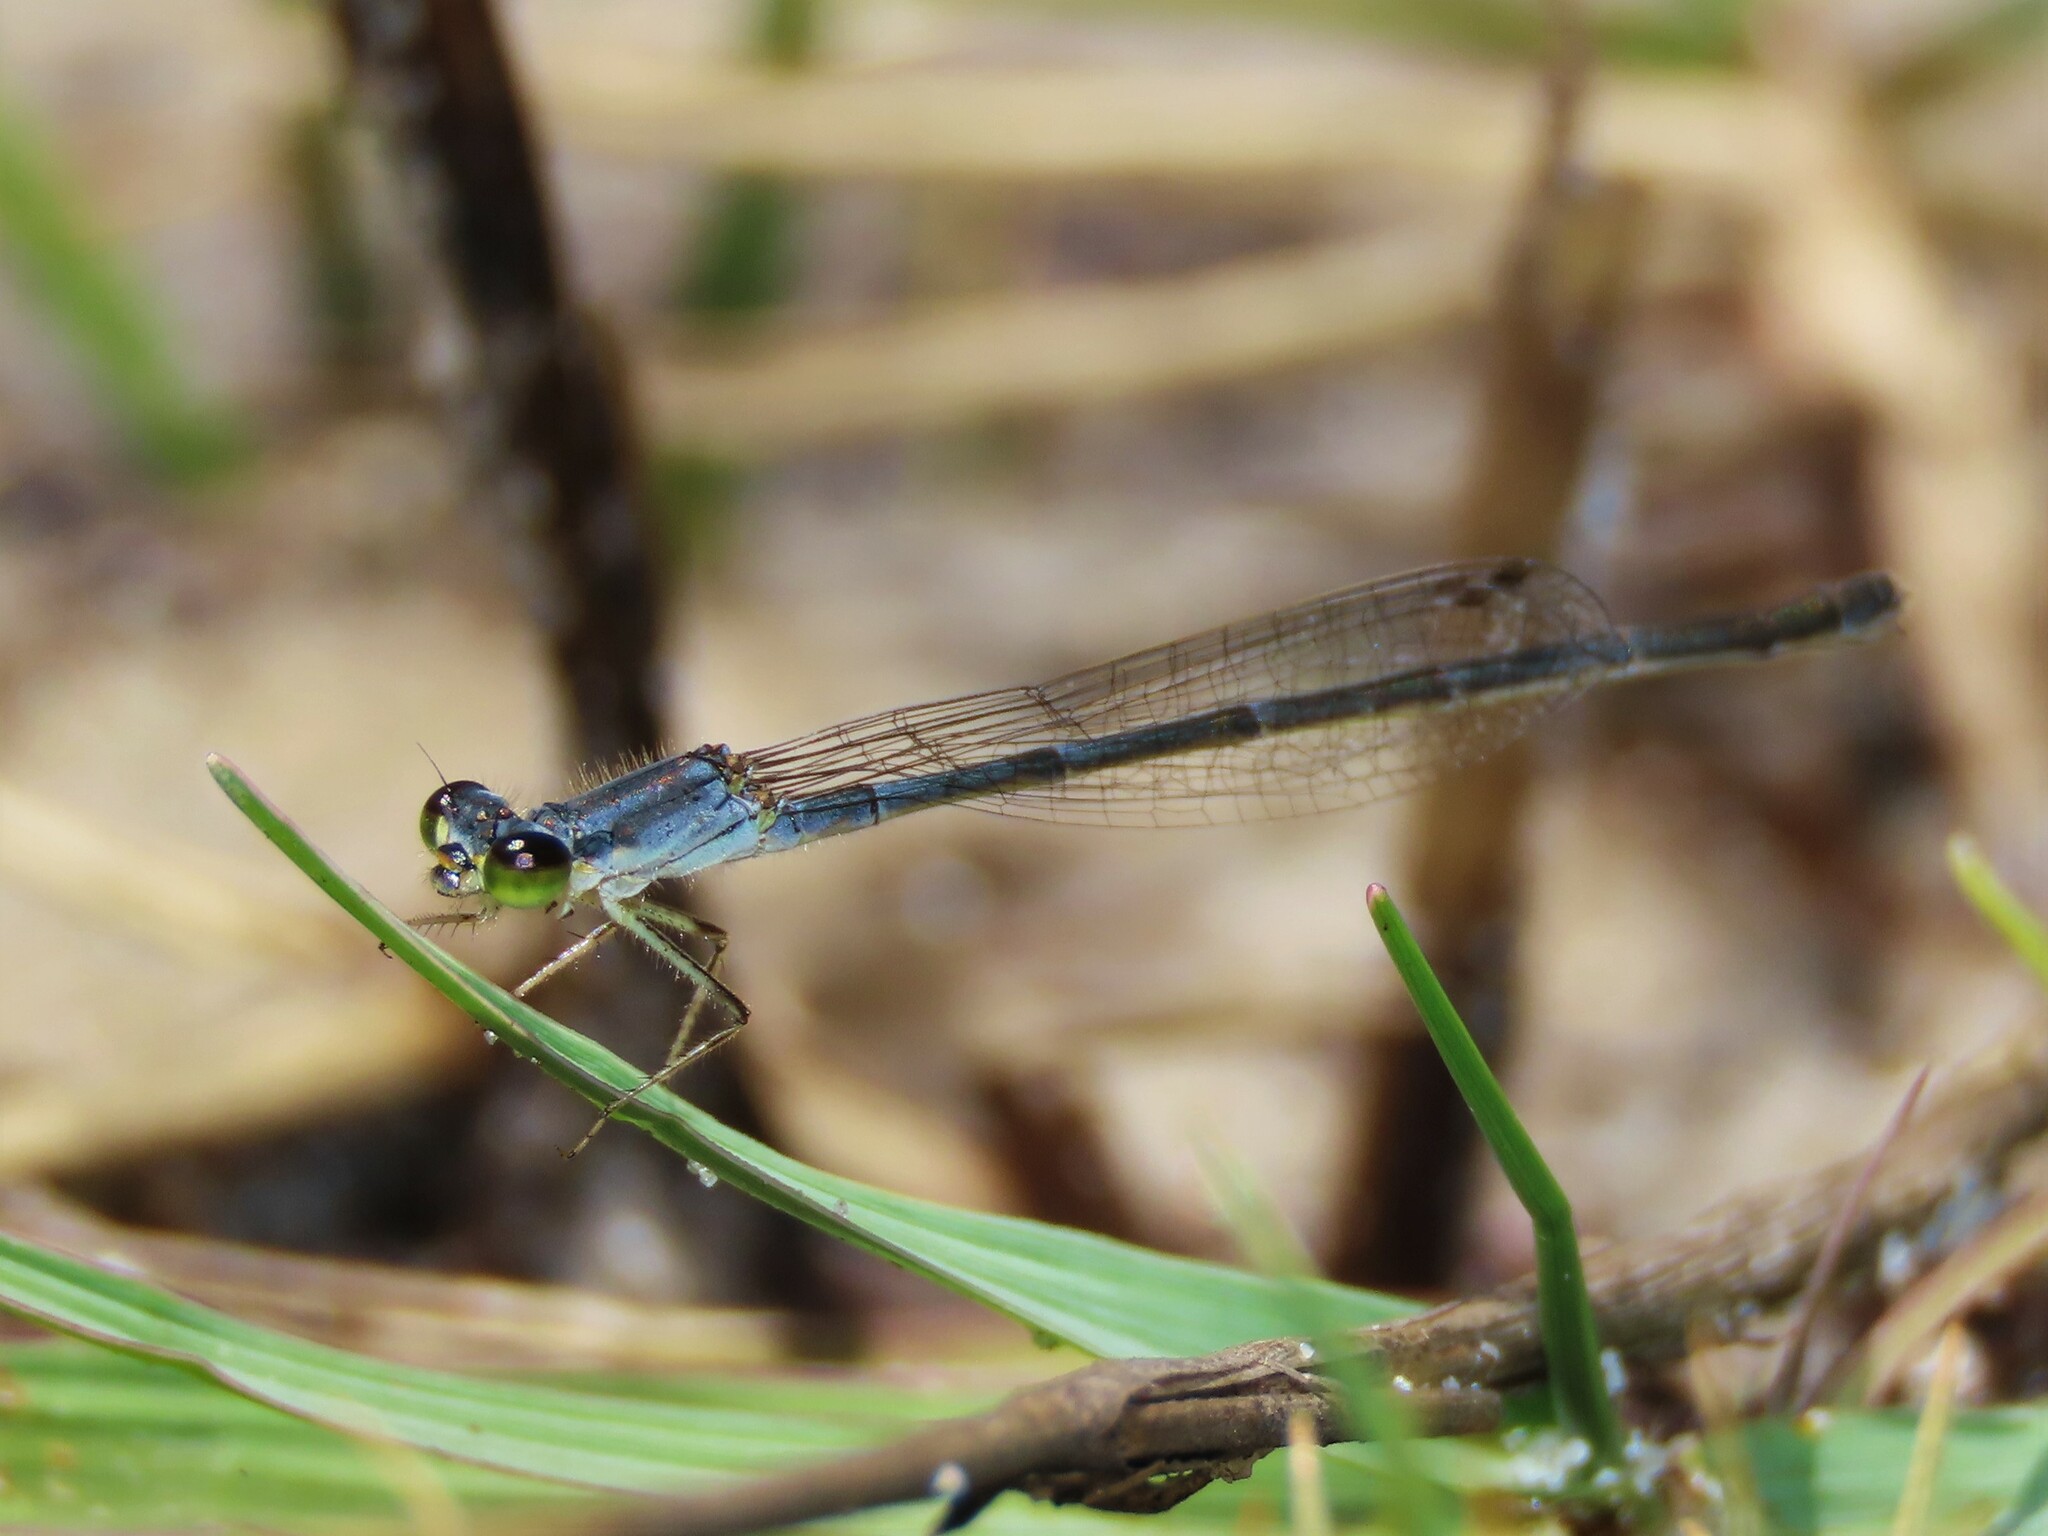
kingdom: Animalia
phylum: Arthropoda
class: Insecta
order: Odonata
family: Coenagrionidae
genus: Ischnura
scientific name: Ischnura posita
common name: Fragile forktail
